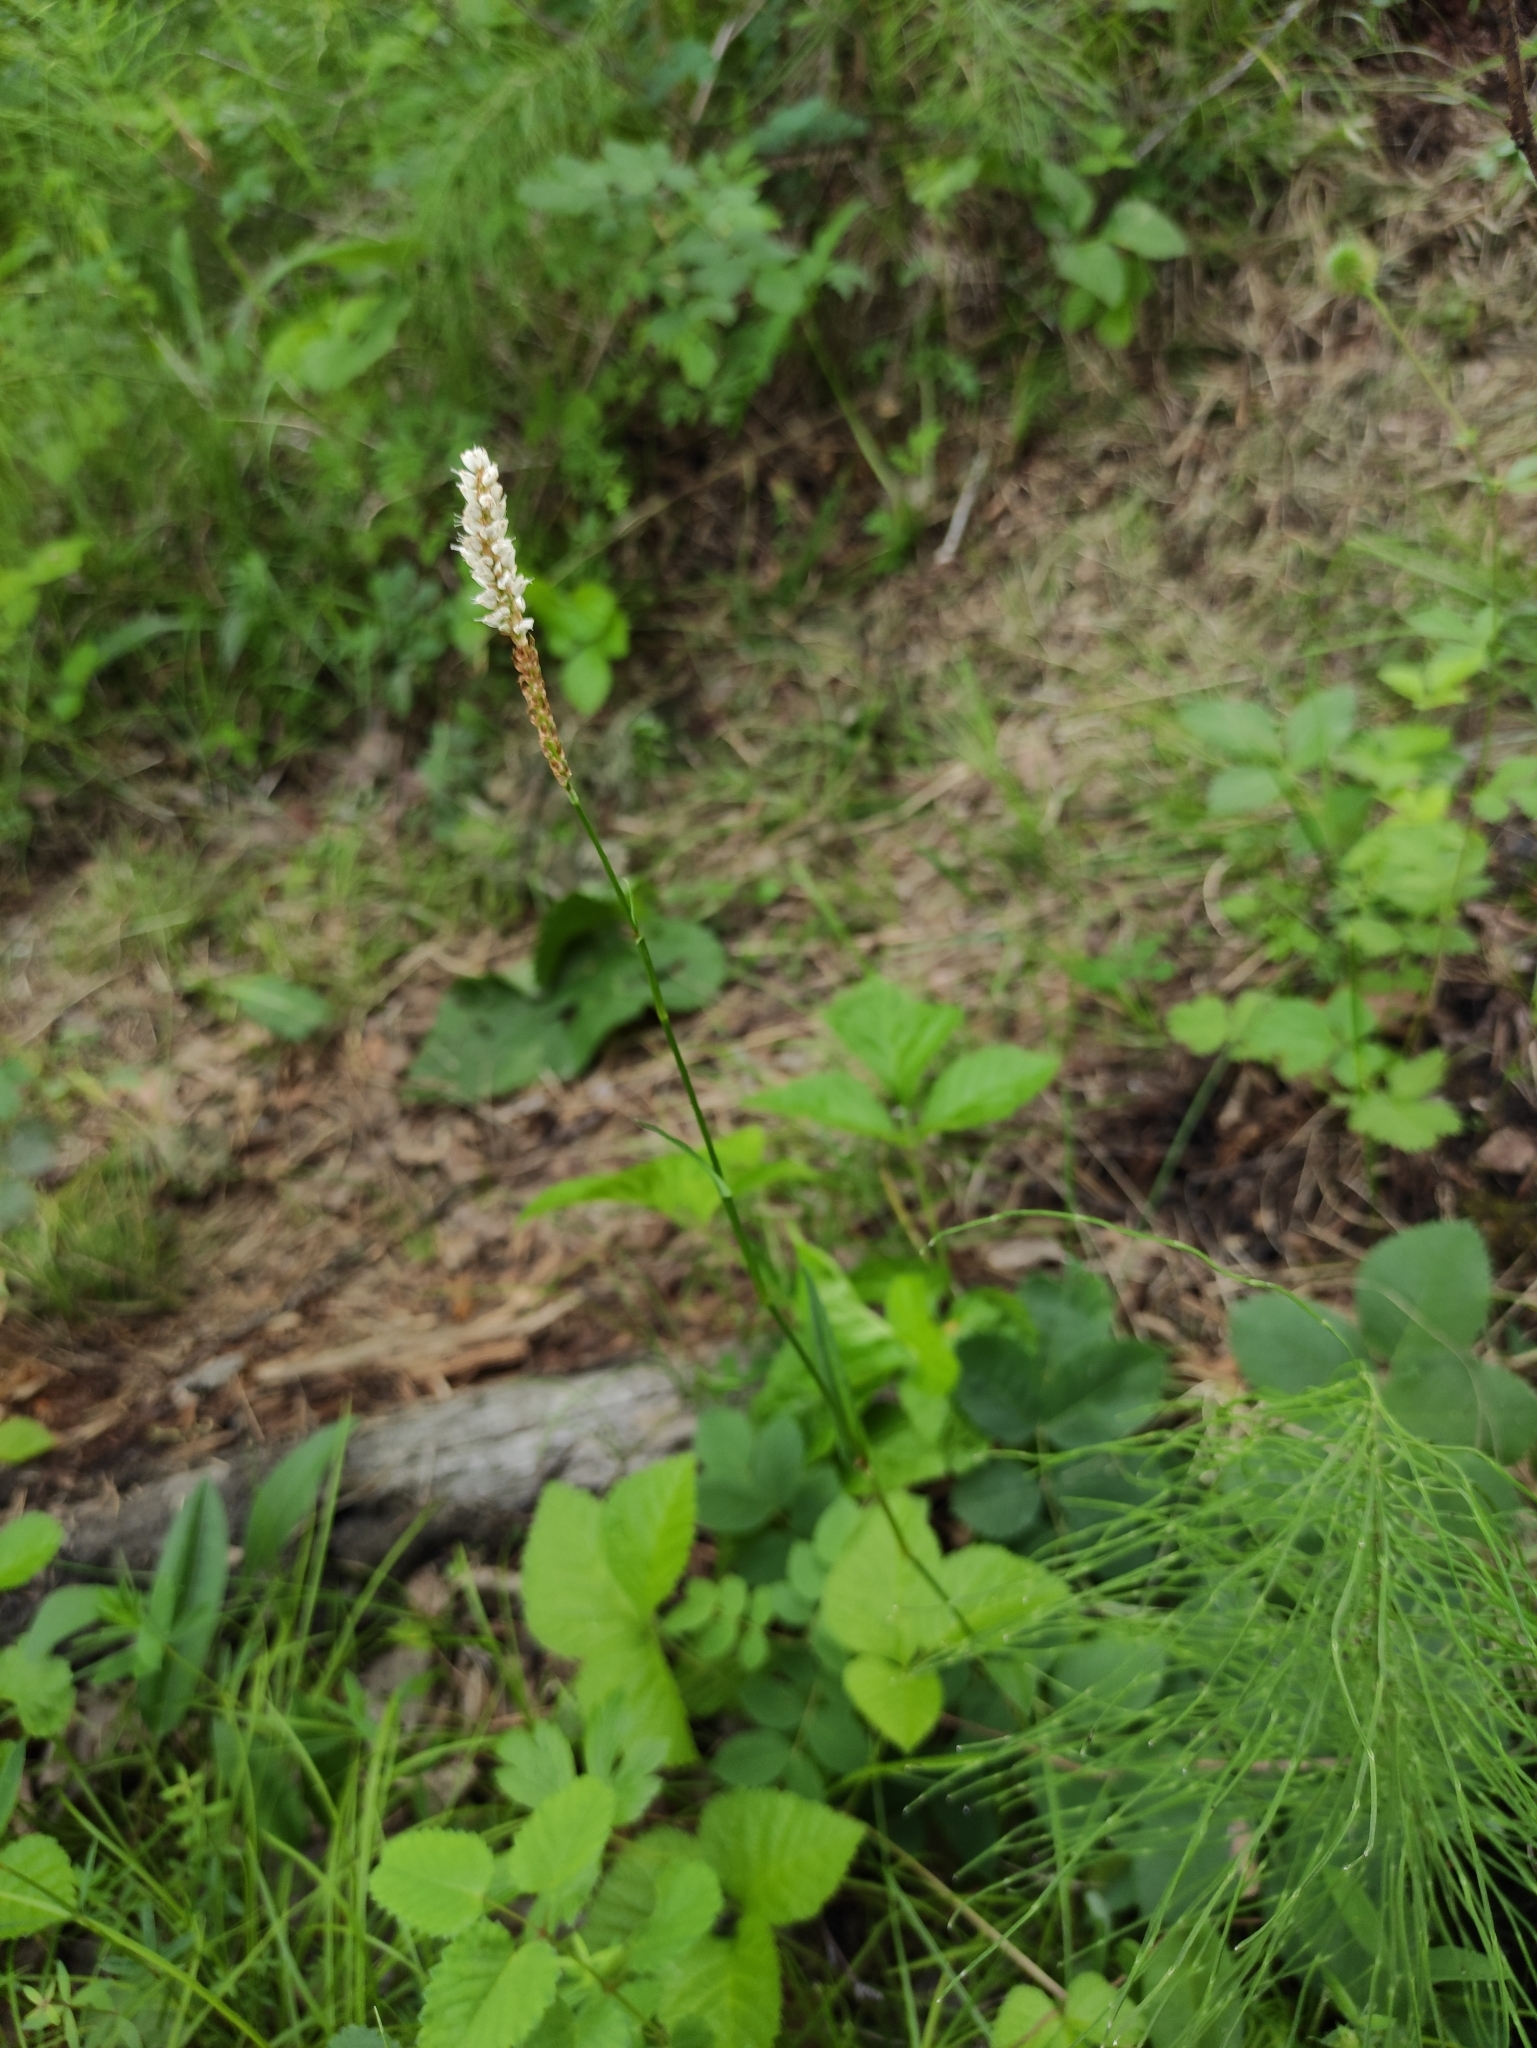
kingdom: Plantae
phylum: Tracheophyta
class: Magnoliopsida
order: Caryophyllales
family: Polygonaceae
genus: Bistorta
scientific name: Bistorta vivipara
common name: Alpine bistort
